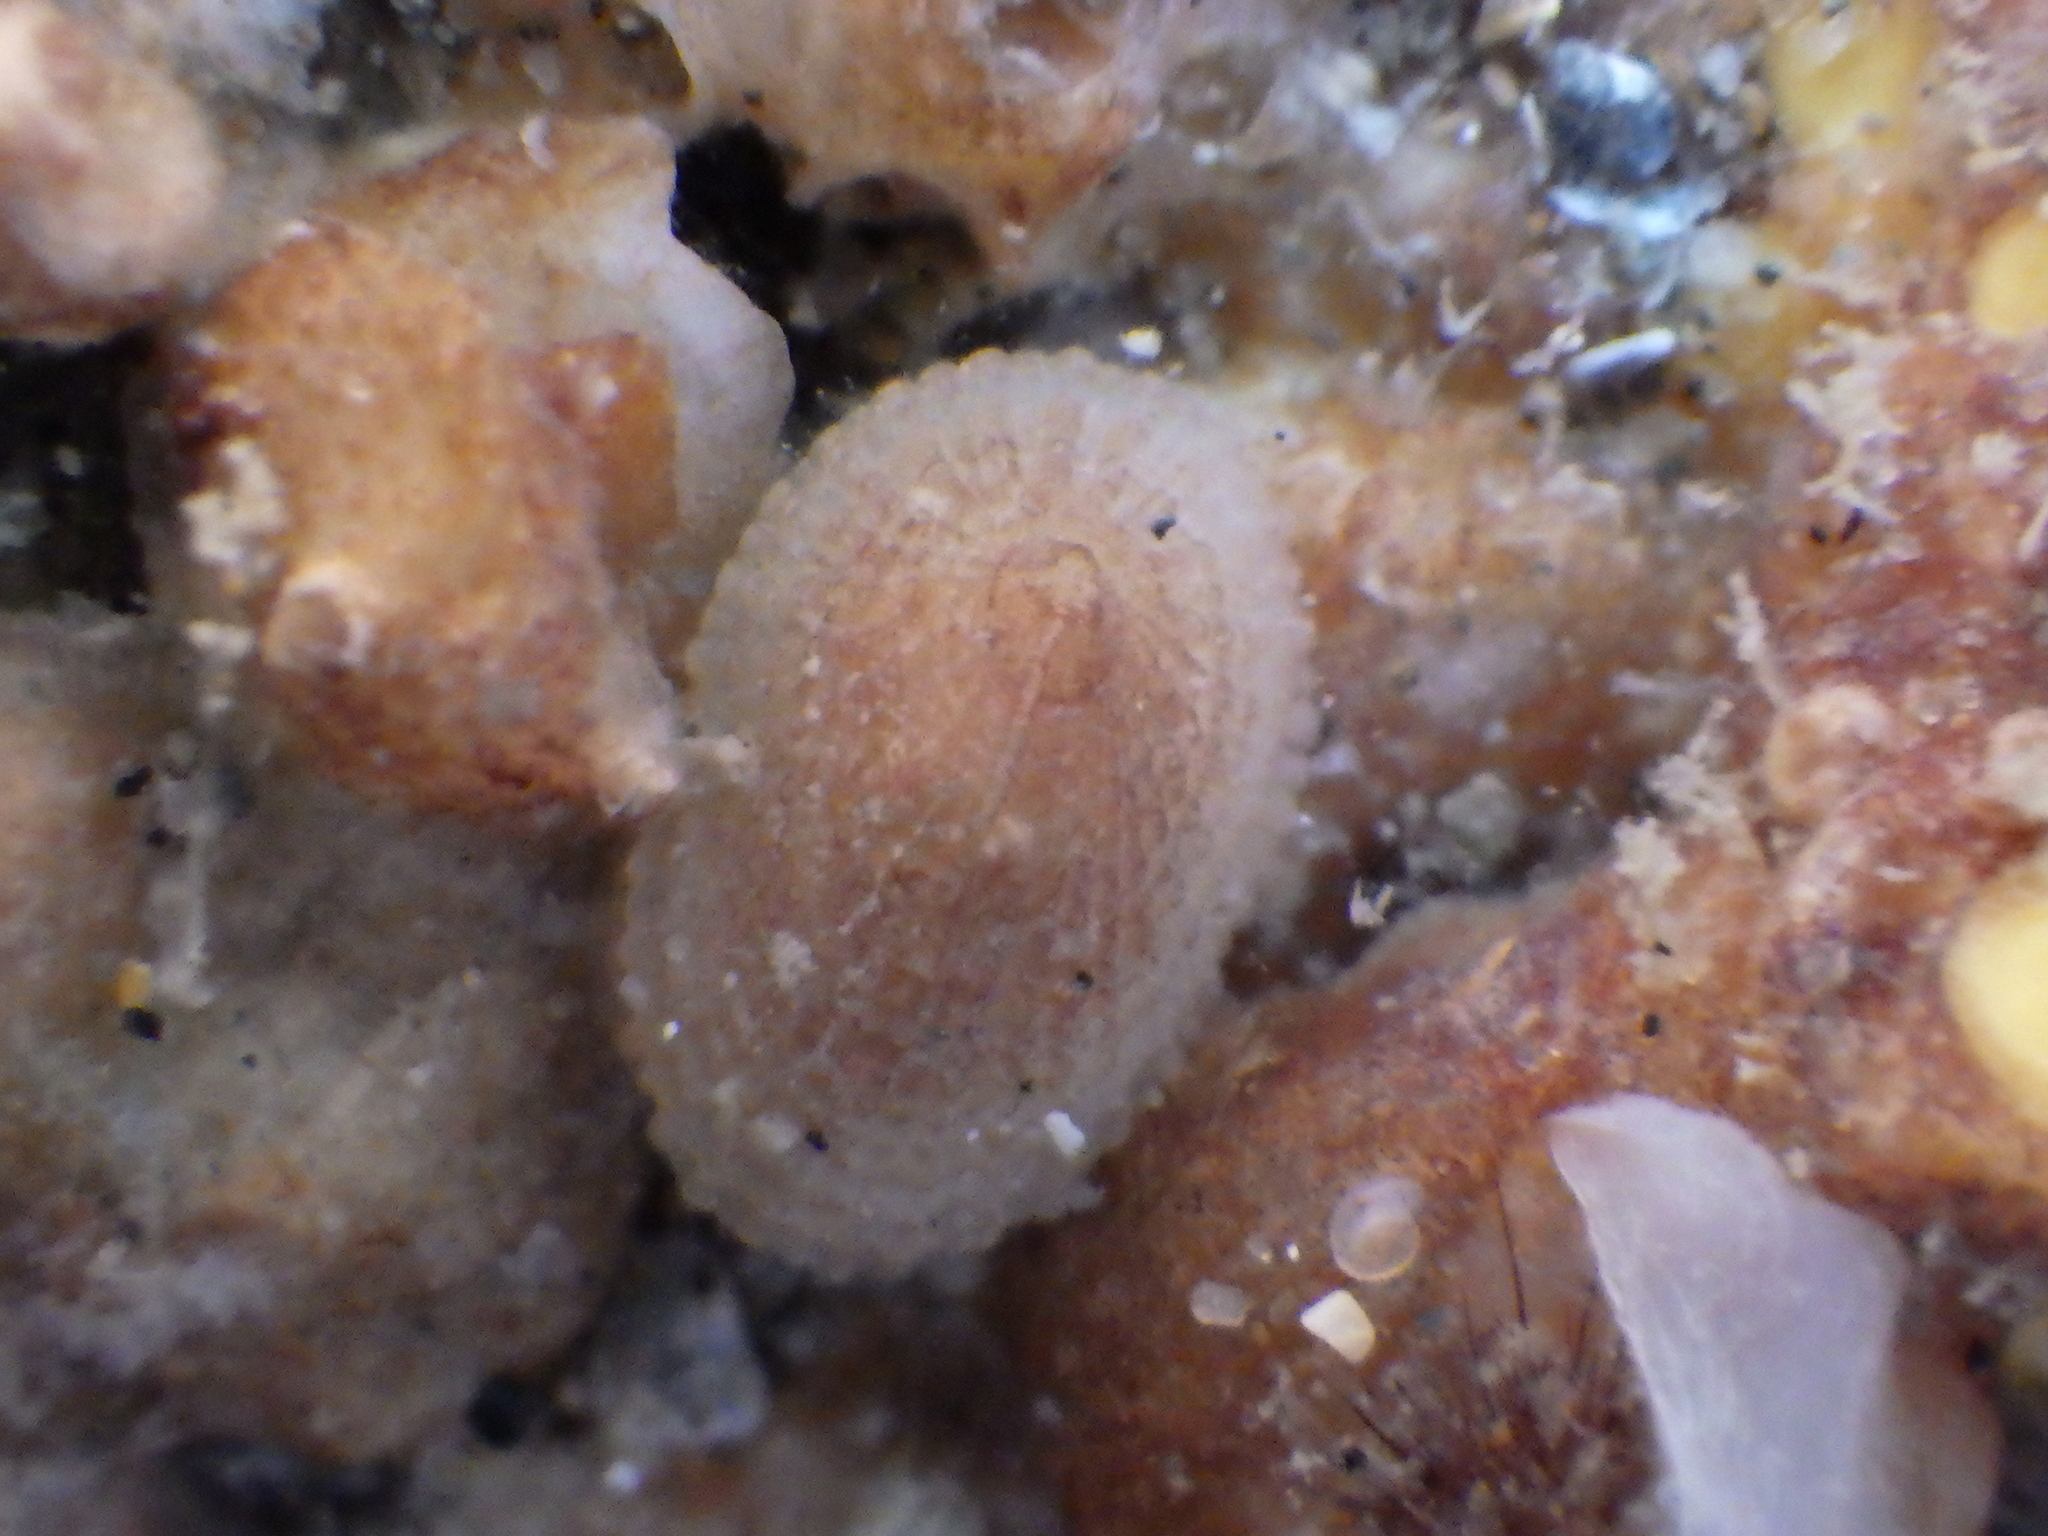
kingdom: Animalia
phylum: Mollusca
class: Gastropoda
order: Lepetellida
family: Fissurellidae
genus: Tugali
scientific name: Tugali suteri
